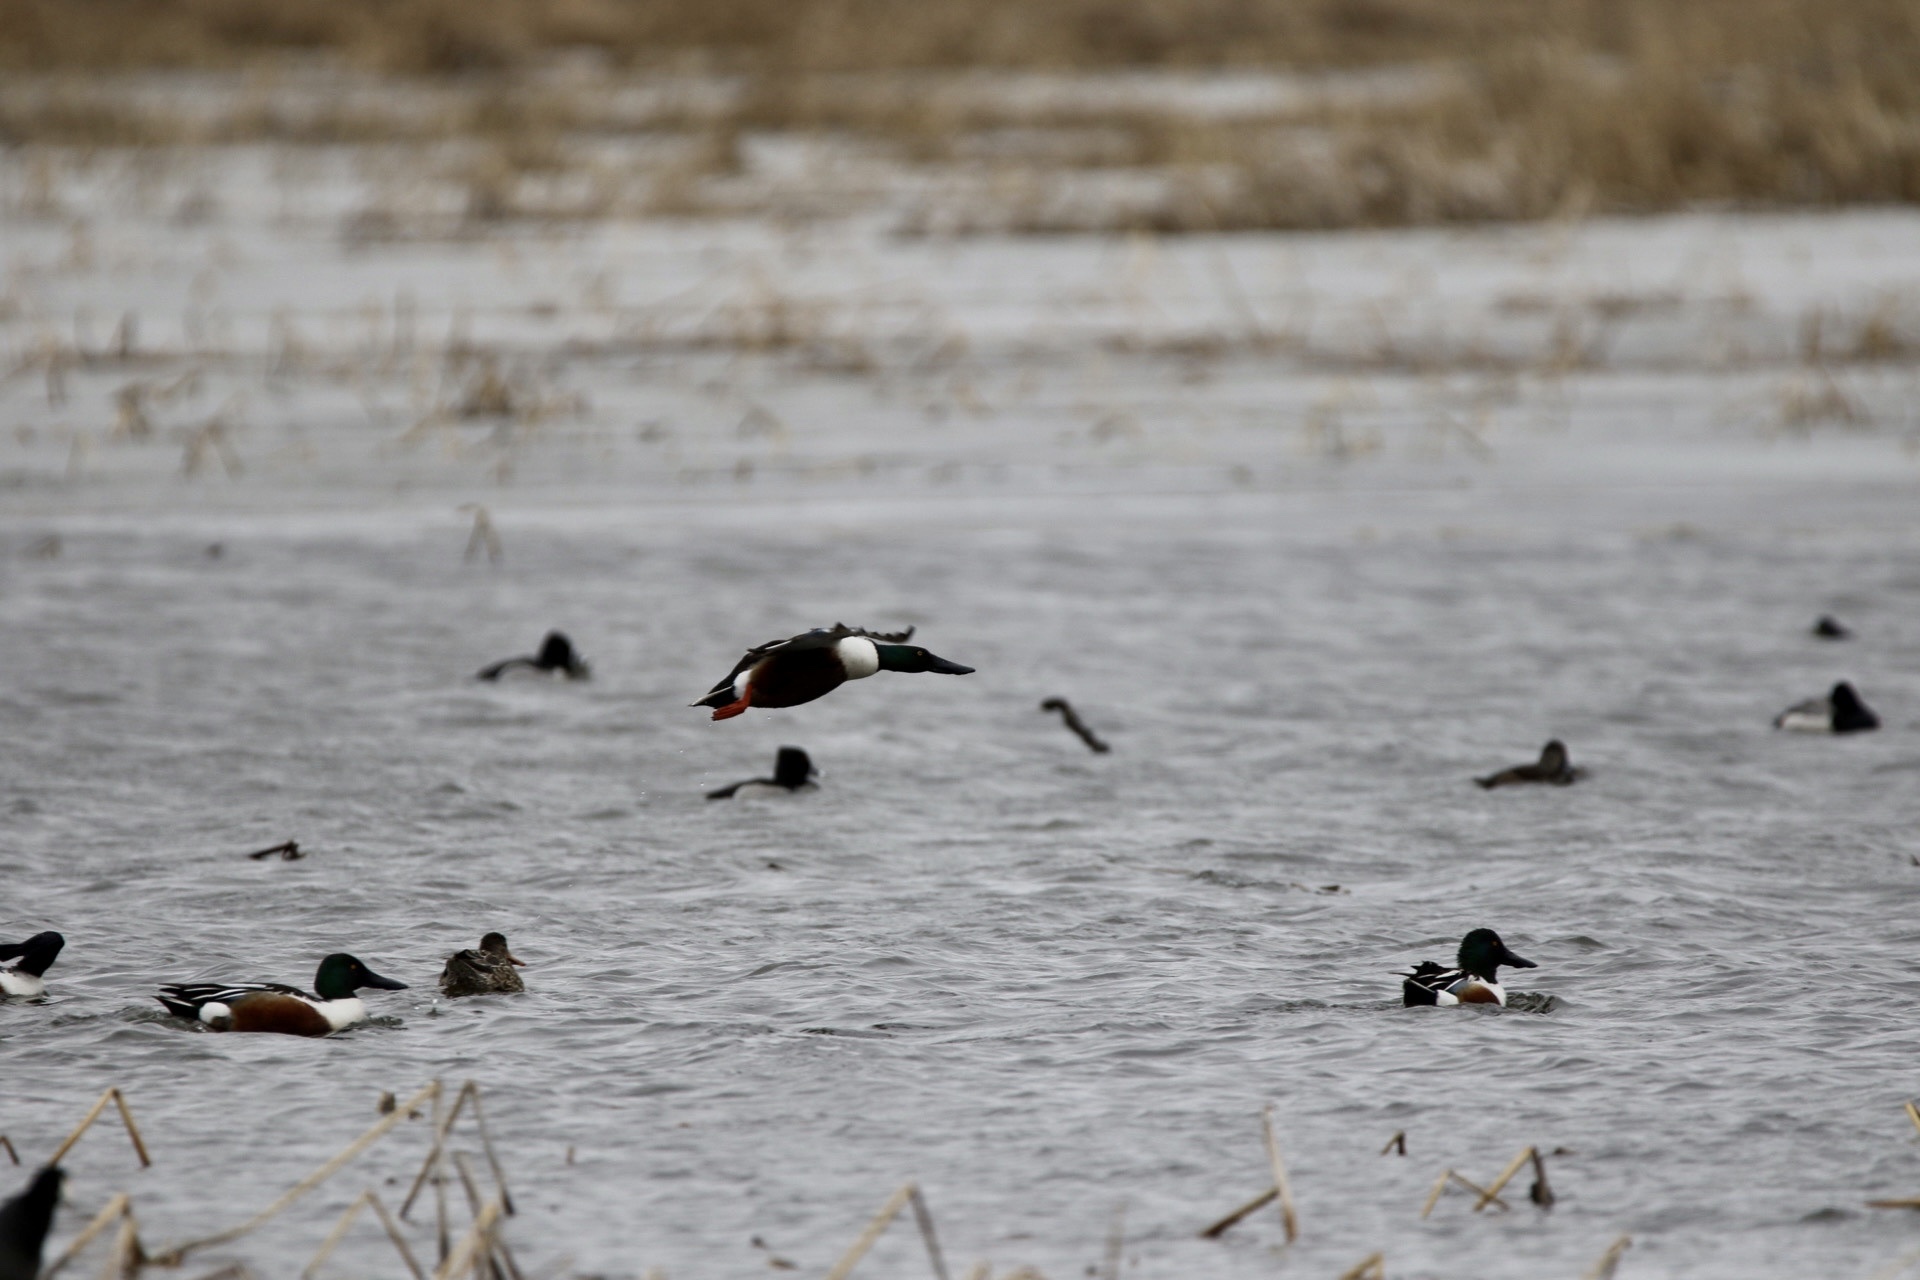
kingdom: Animalia
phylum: Chordata
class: Aves
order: Anseriformes
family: Anatidae
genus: Spatula
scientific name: Spatula clypeata
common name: Northern shoveler
